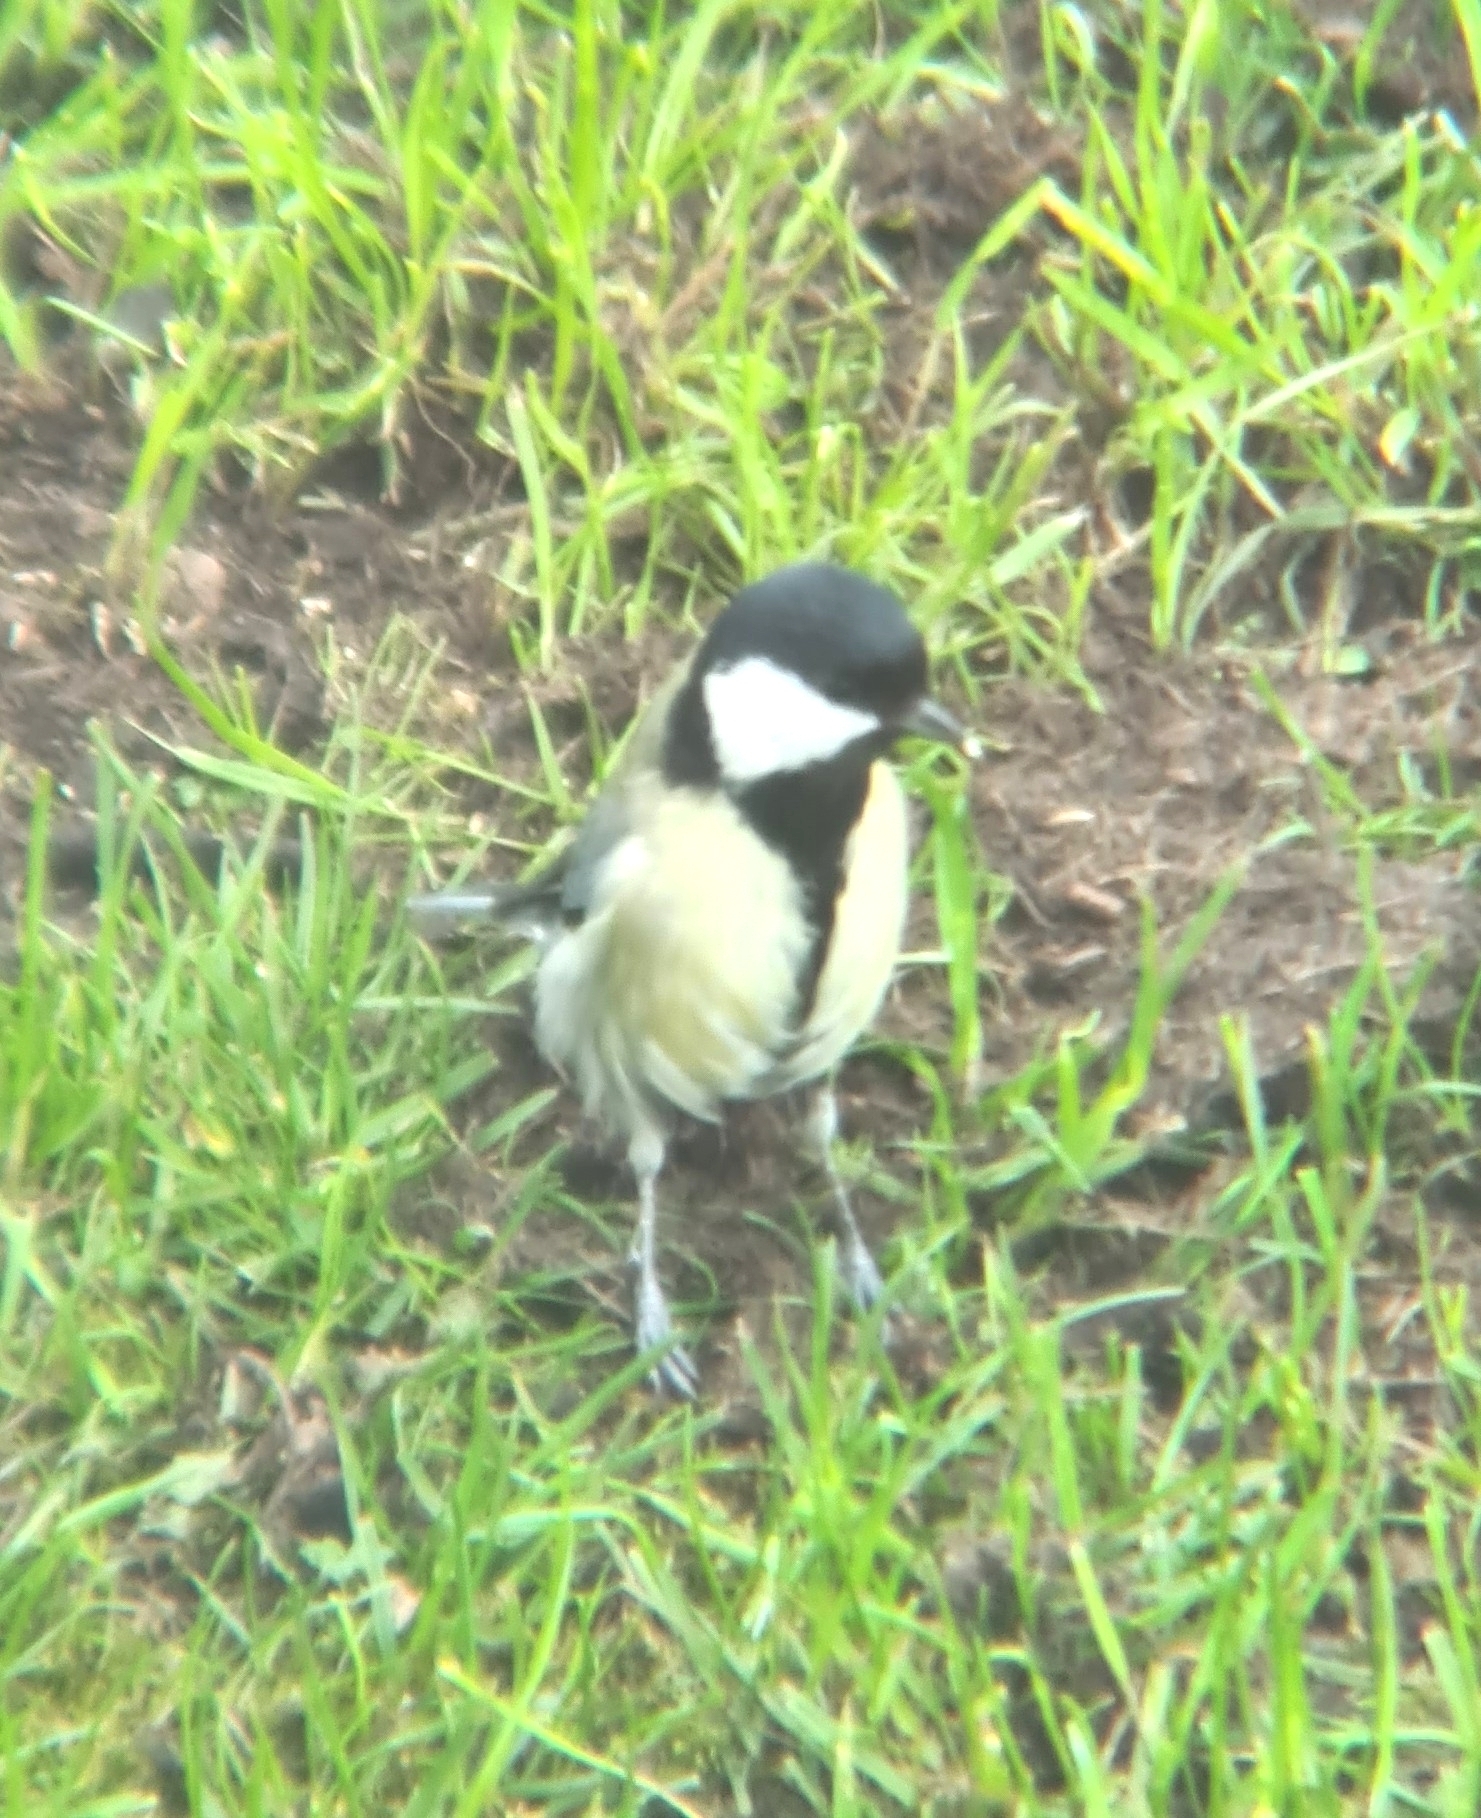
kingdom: Animalia
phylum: Chordata
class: Aves
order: Passeriformes
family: Paridae
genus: Parus
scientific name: Parus major
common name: Great tit
